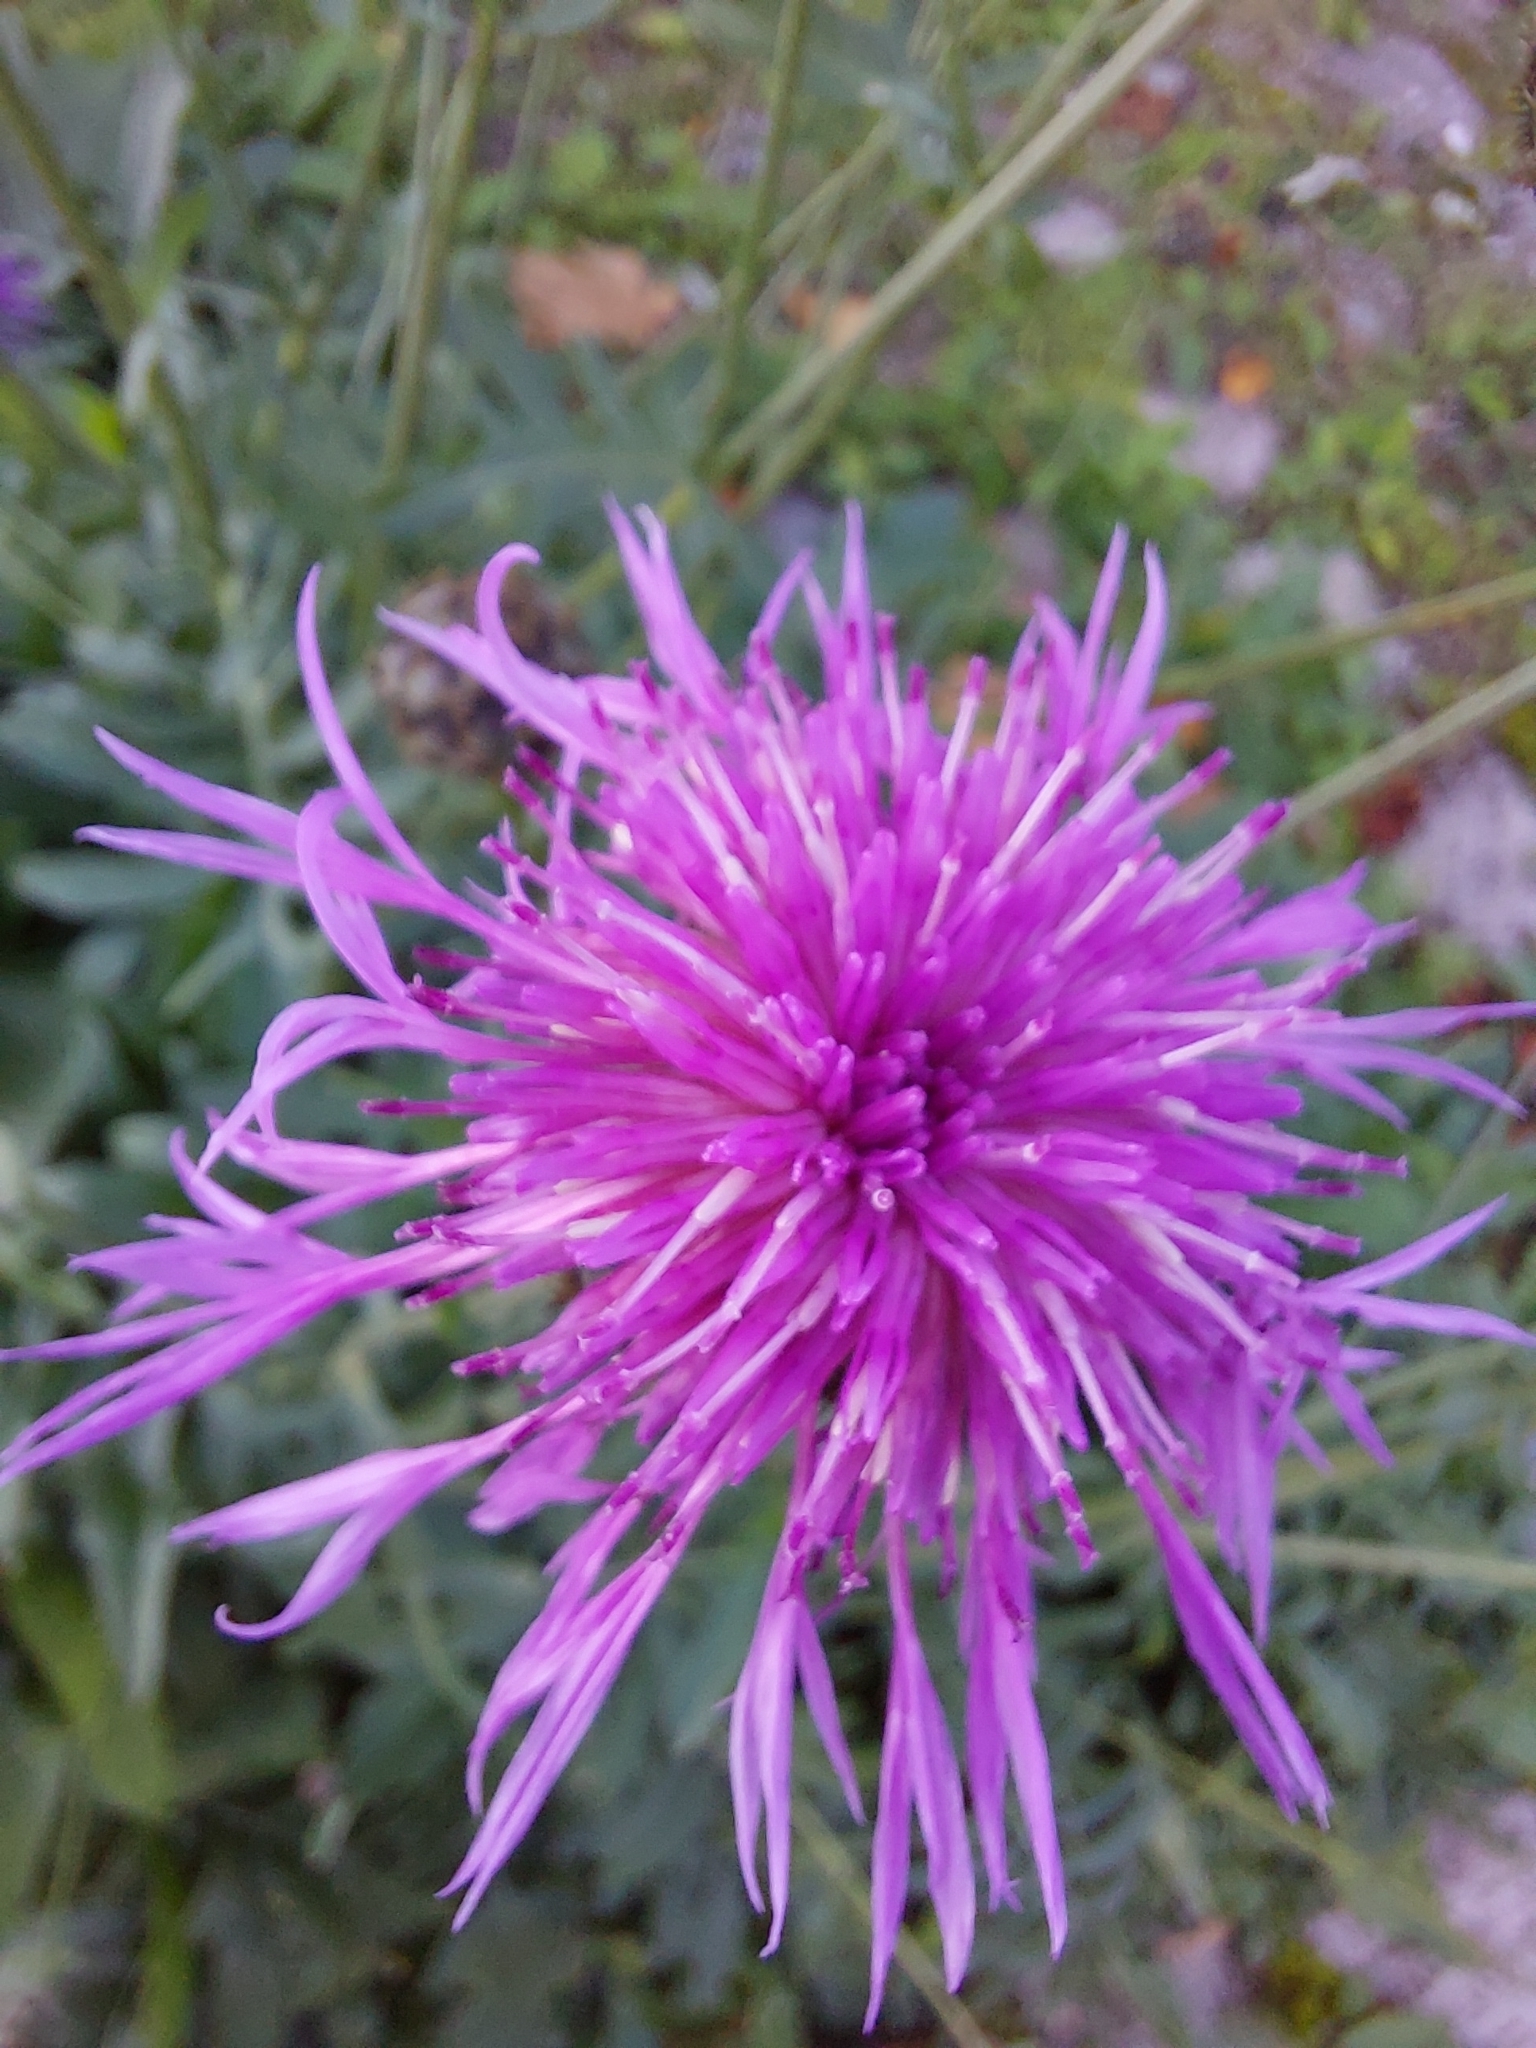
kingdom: Plantae
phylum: Tracheophyta
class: Magnoliopsida
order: Asterales
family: Asteraceae
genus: Centaurea
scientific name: Centaurea scabiosa
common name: Greater knapweed
